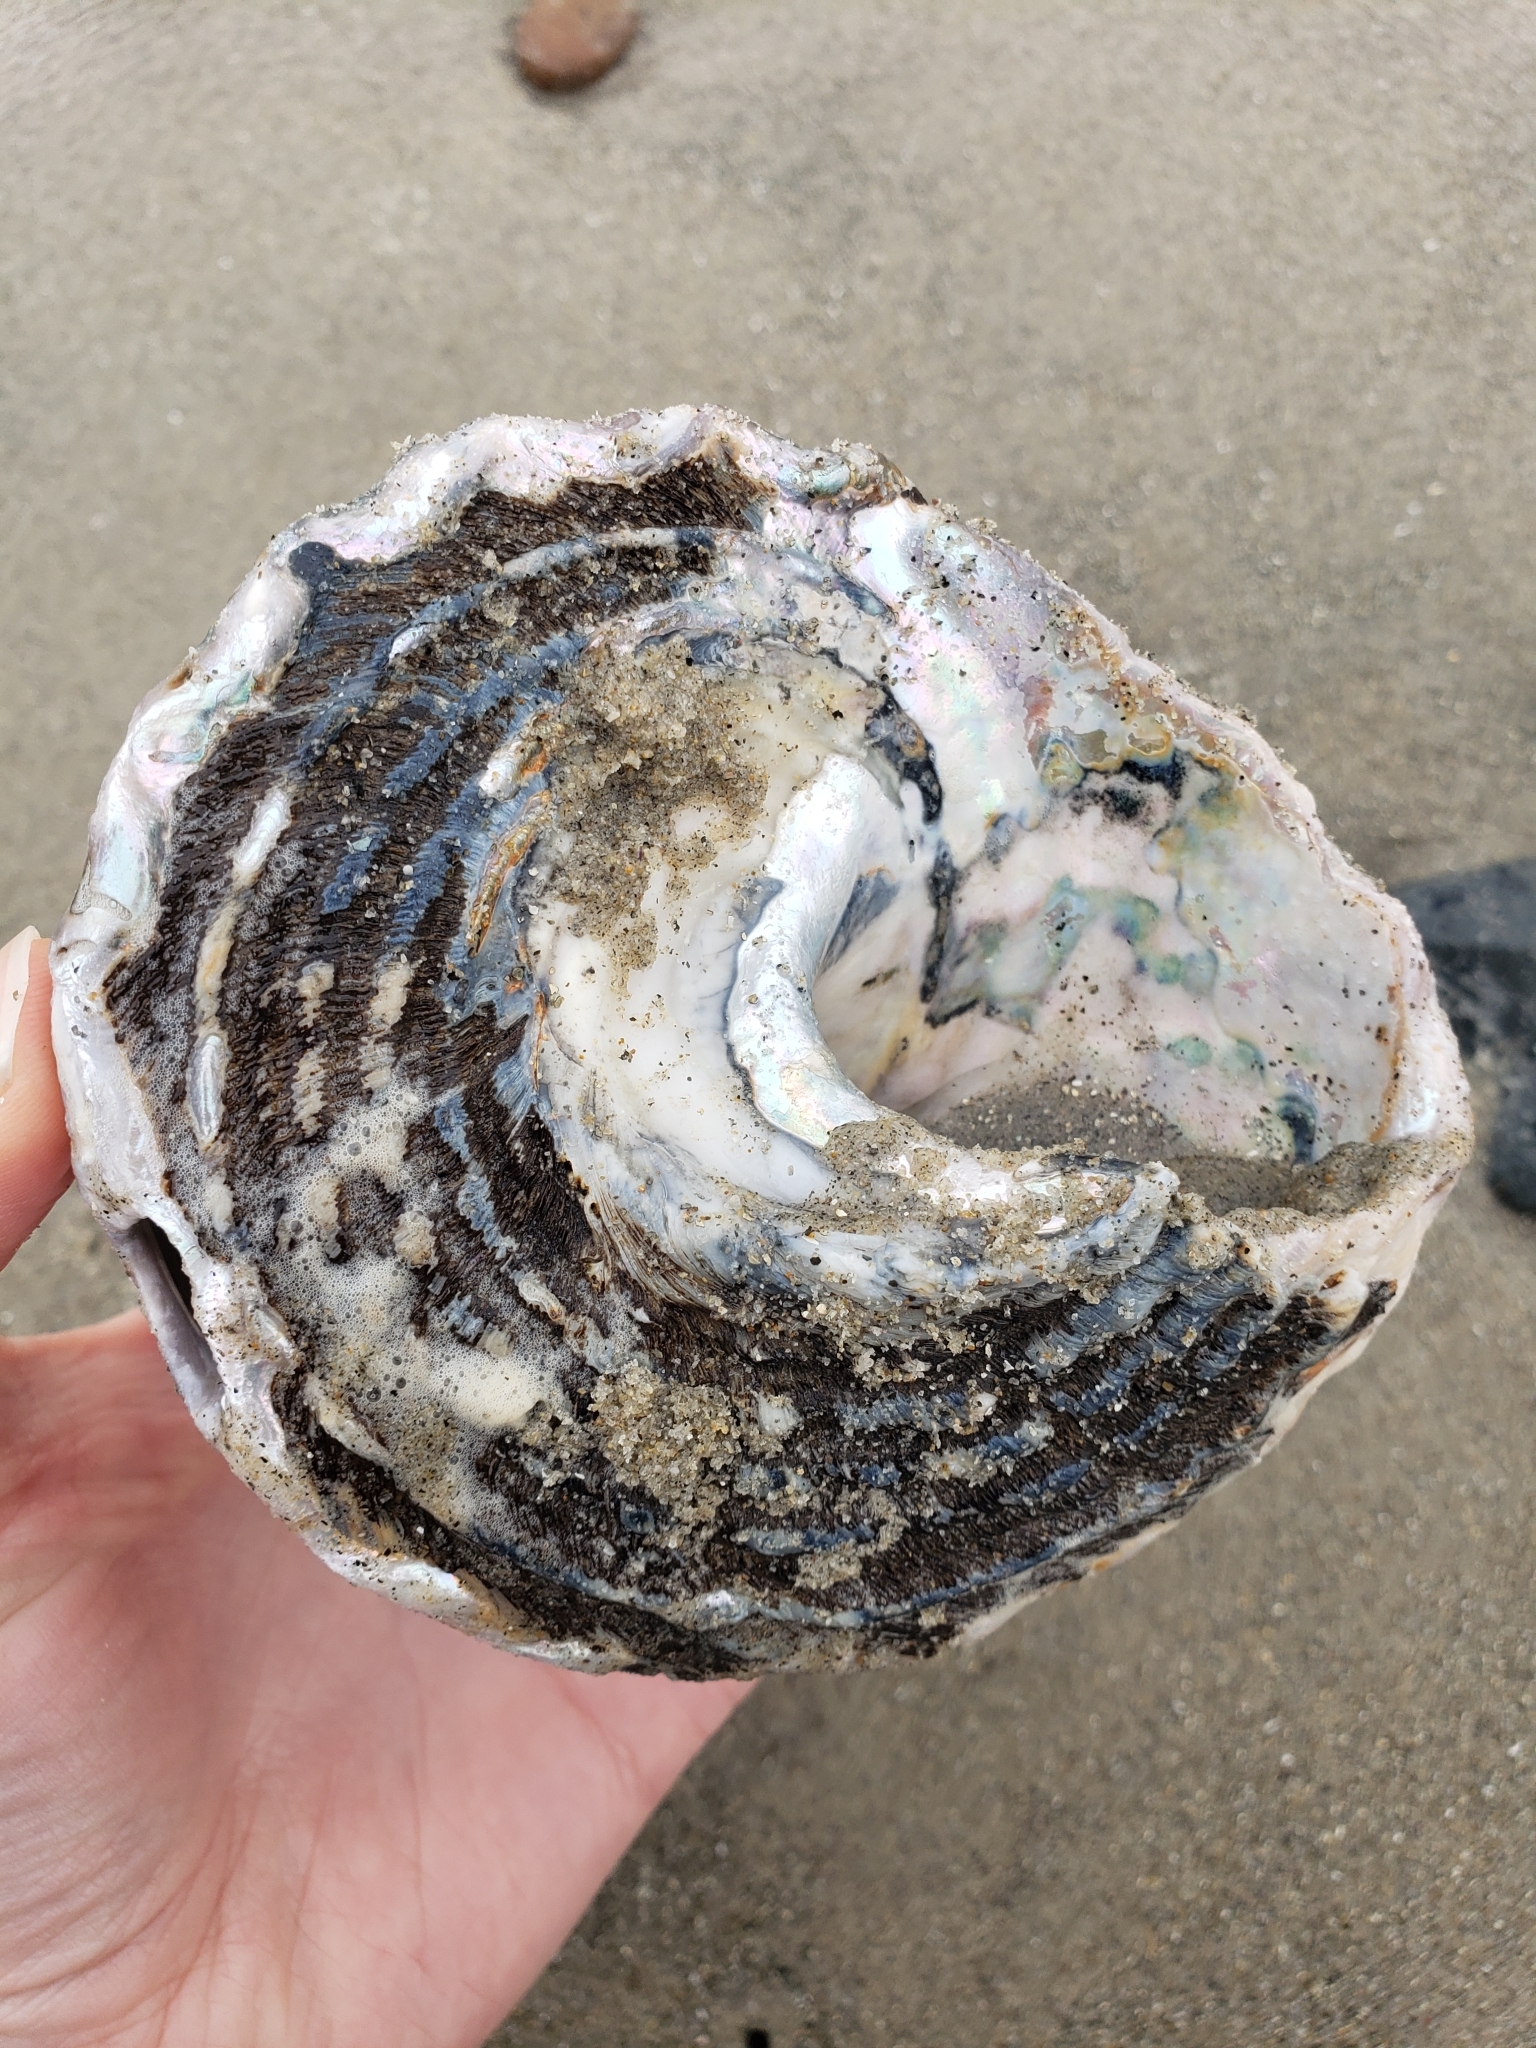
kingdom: Animalia
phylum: Mollusca
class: Gastropoda
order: Trochida
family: Turbinidae
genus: Megastraea
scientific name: Megastraea undosa
